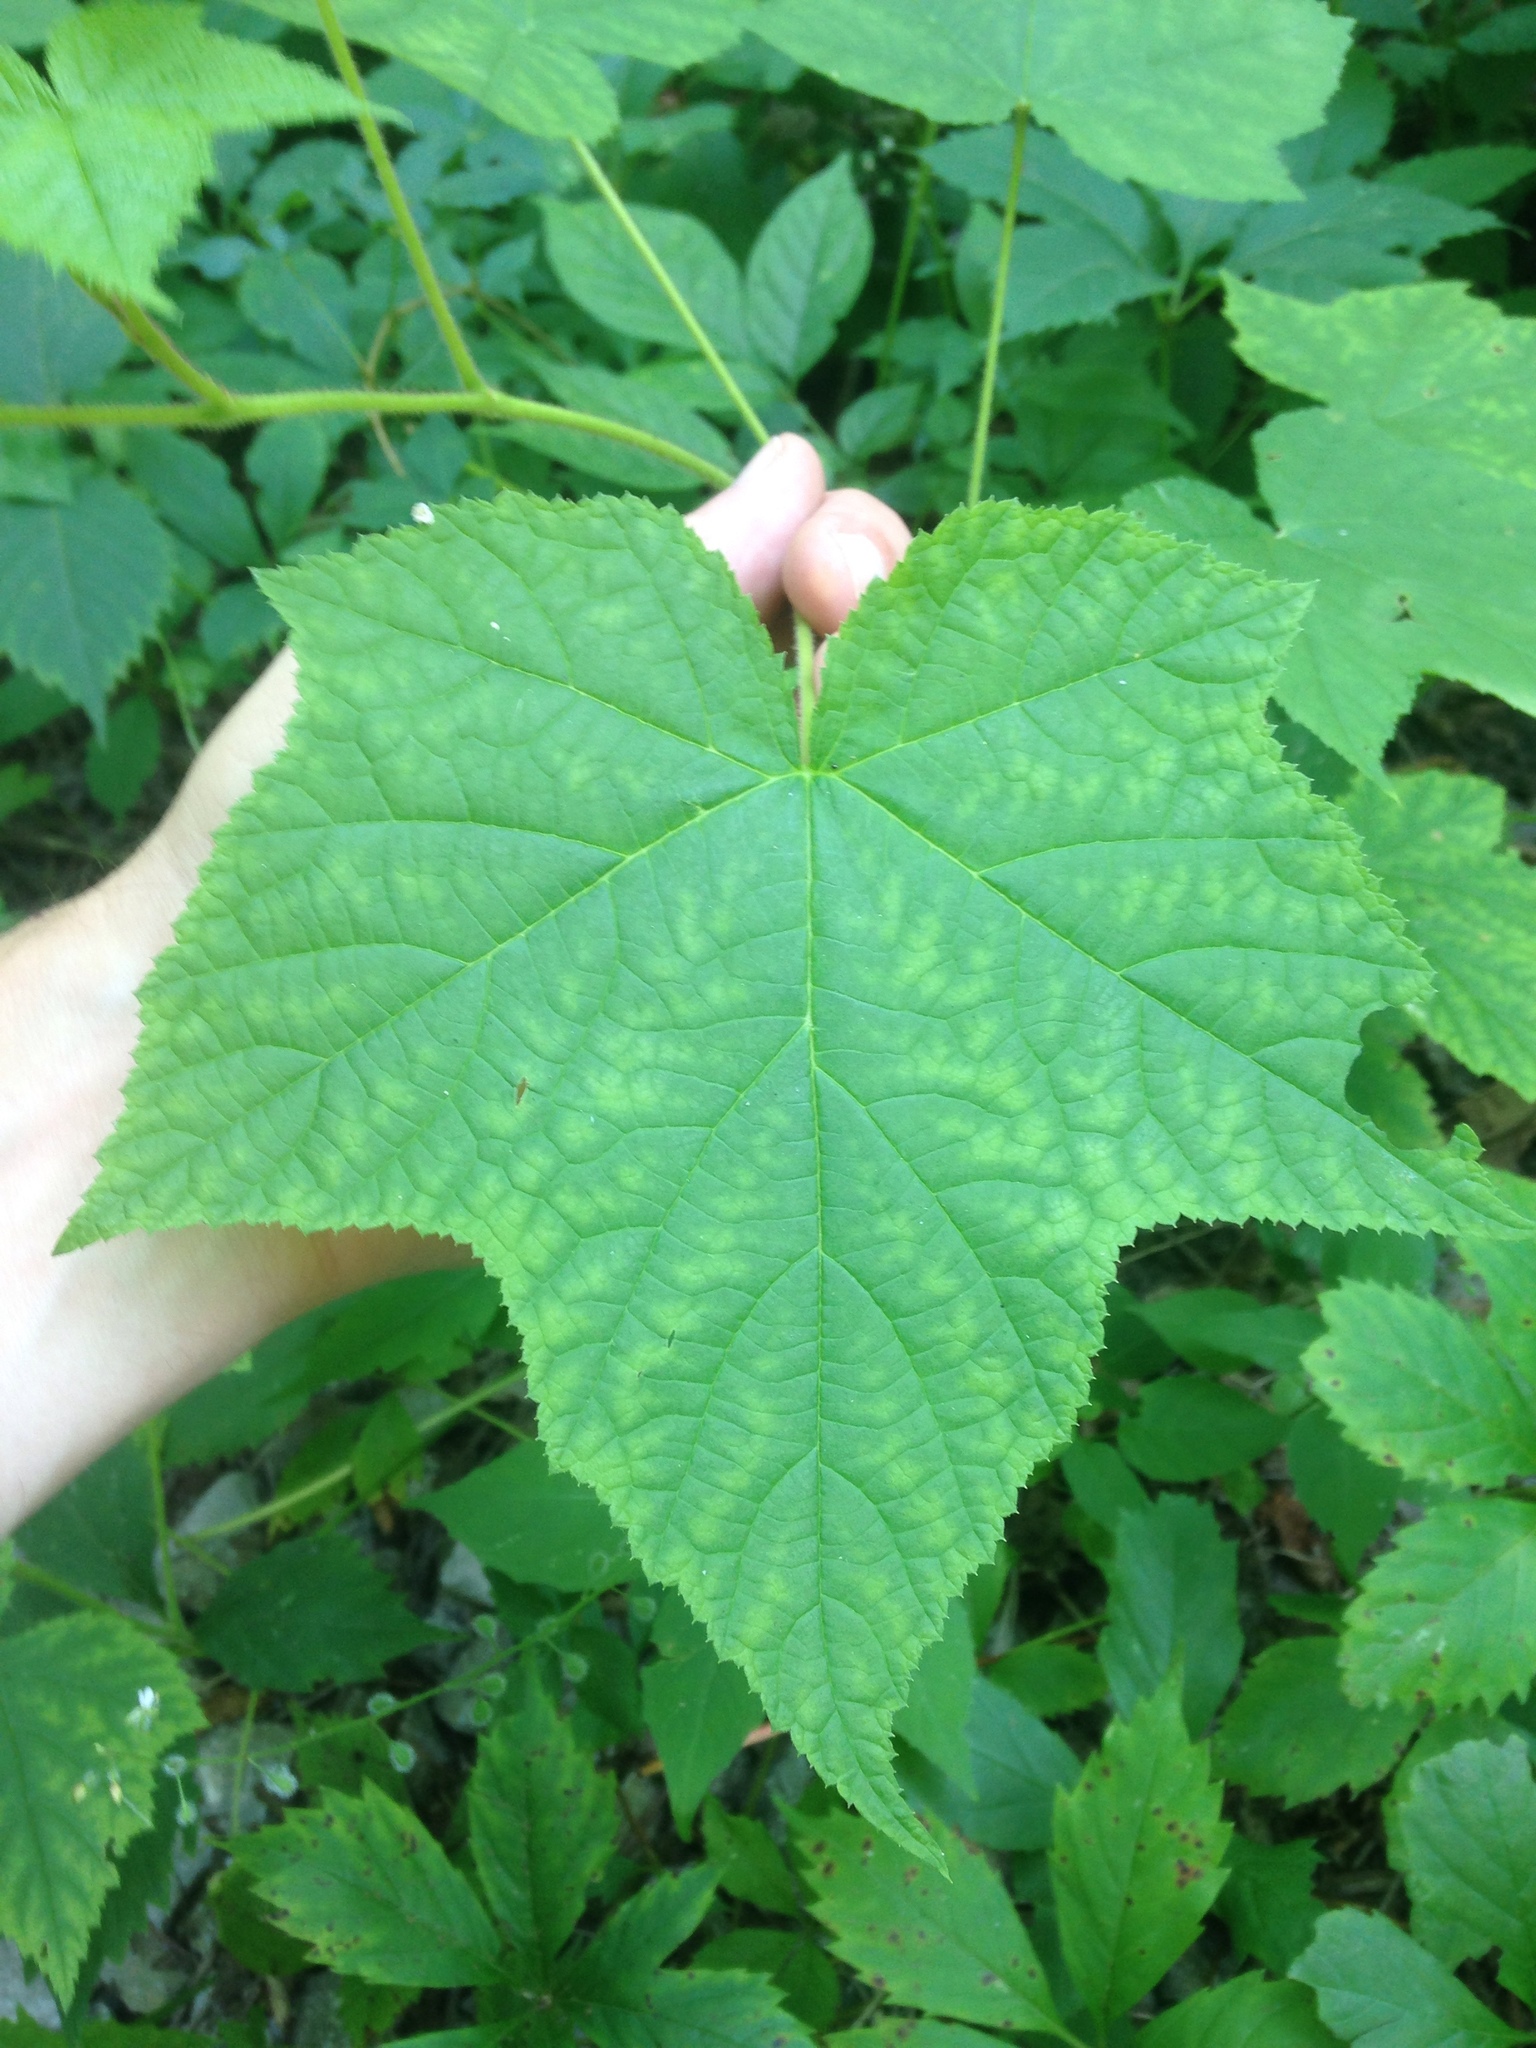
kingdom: Plantae
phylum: Tracheophyta
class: Magnoliopsida
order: Rosales
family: Rosaceae
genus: Rubus
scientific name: Rubus odoratus
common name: Purple-flowered raspberry
